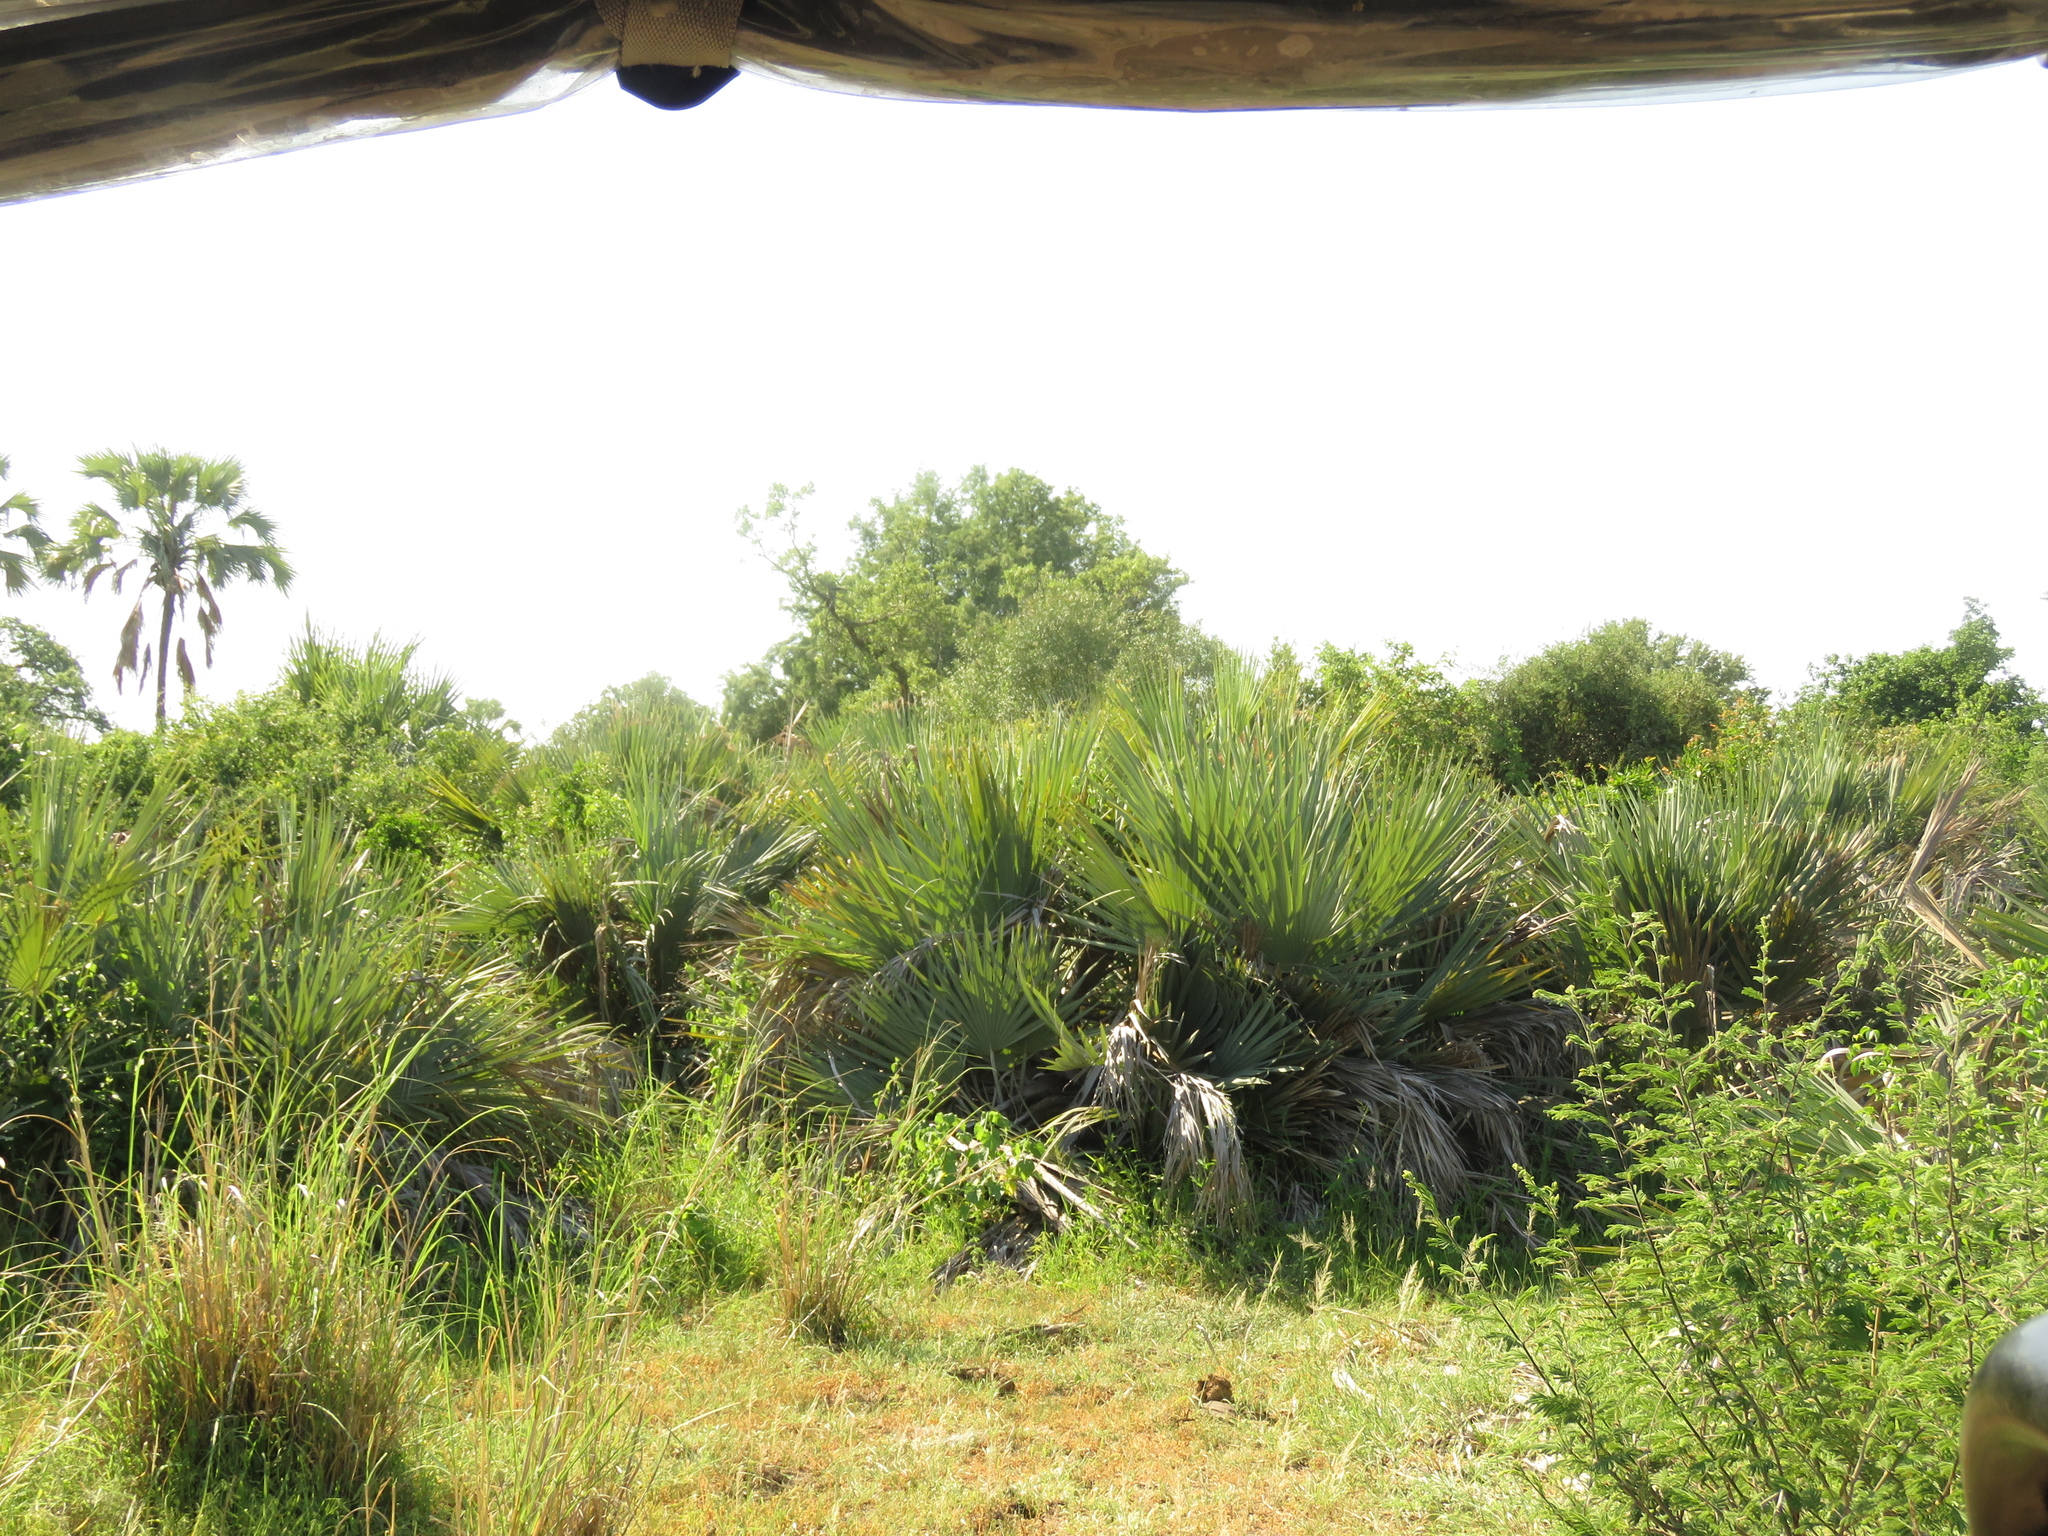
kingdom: Plantae
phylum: Tracheophyta
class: Liliopsida
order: Arecales
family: Arecaceae
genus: Hyphaene
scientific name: Hyphaene petersiana
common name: African ivory nut palm
